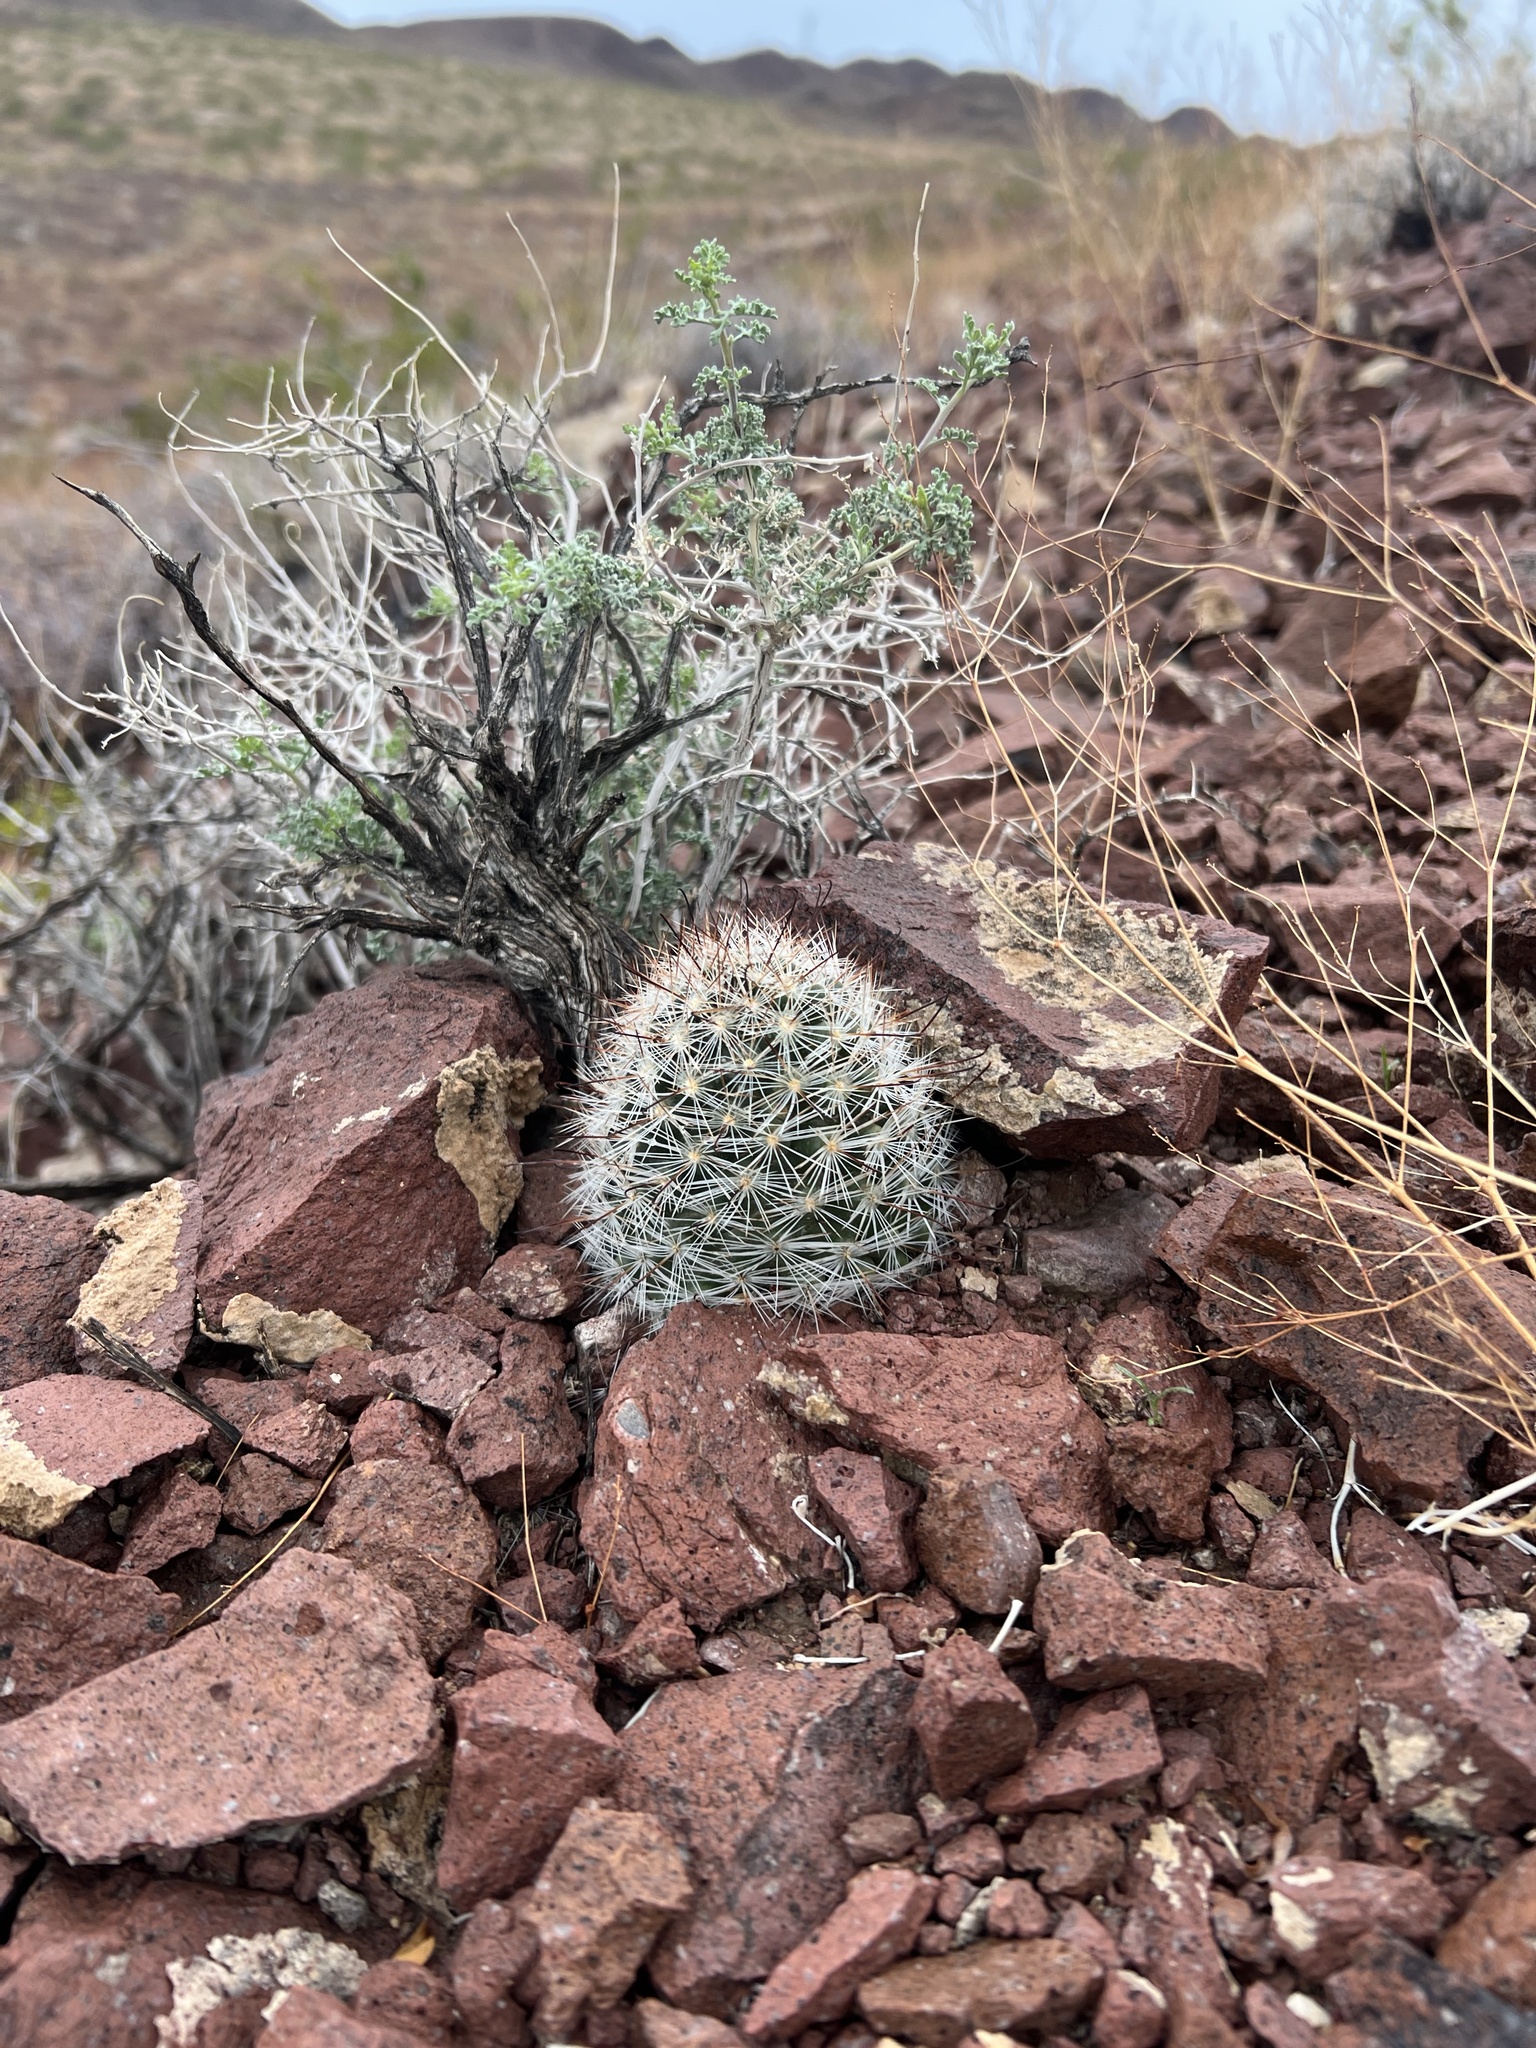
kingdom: Plantae
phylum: Tracheophyta
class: Magnoliopsida
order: Caryophyllales
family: Cactaceae
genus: Cochemiea
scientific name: Cochemiea tetrancistra
